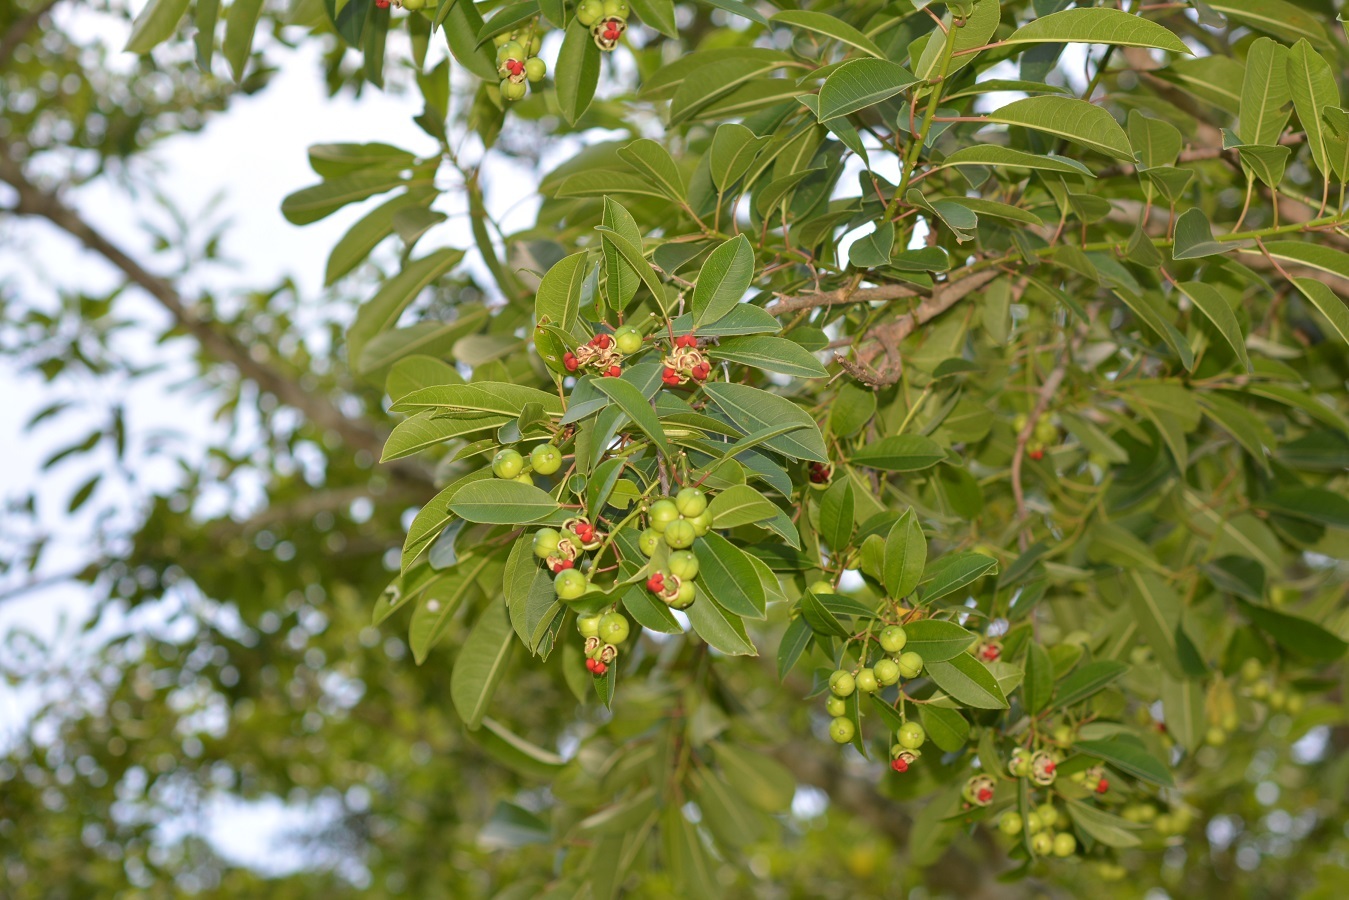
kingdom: Plantae
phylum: Tracheophyta
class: Magnoliopsida
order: Malpighiales
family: Euphorbiaceae
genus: Sapium
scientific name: Sapium macrocarpum
